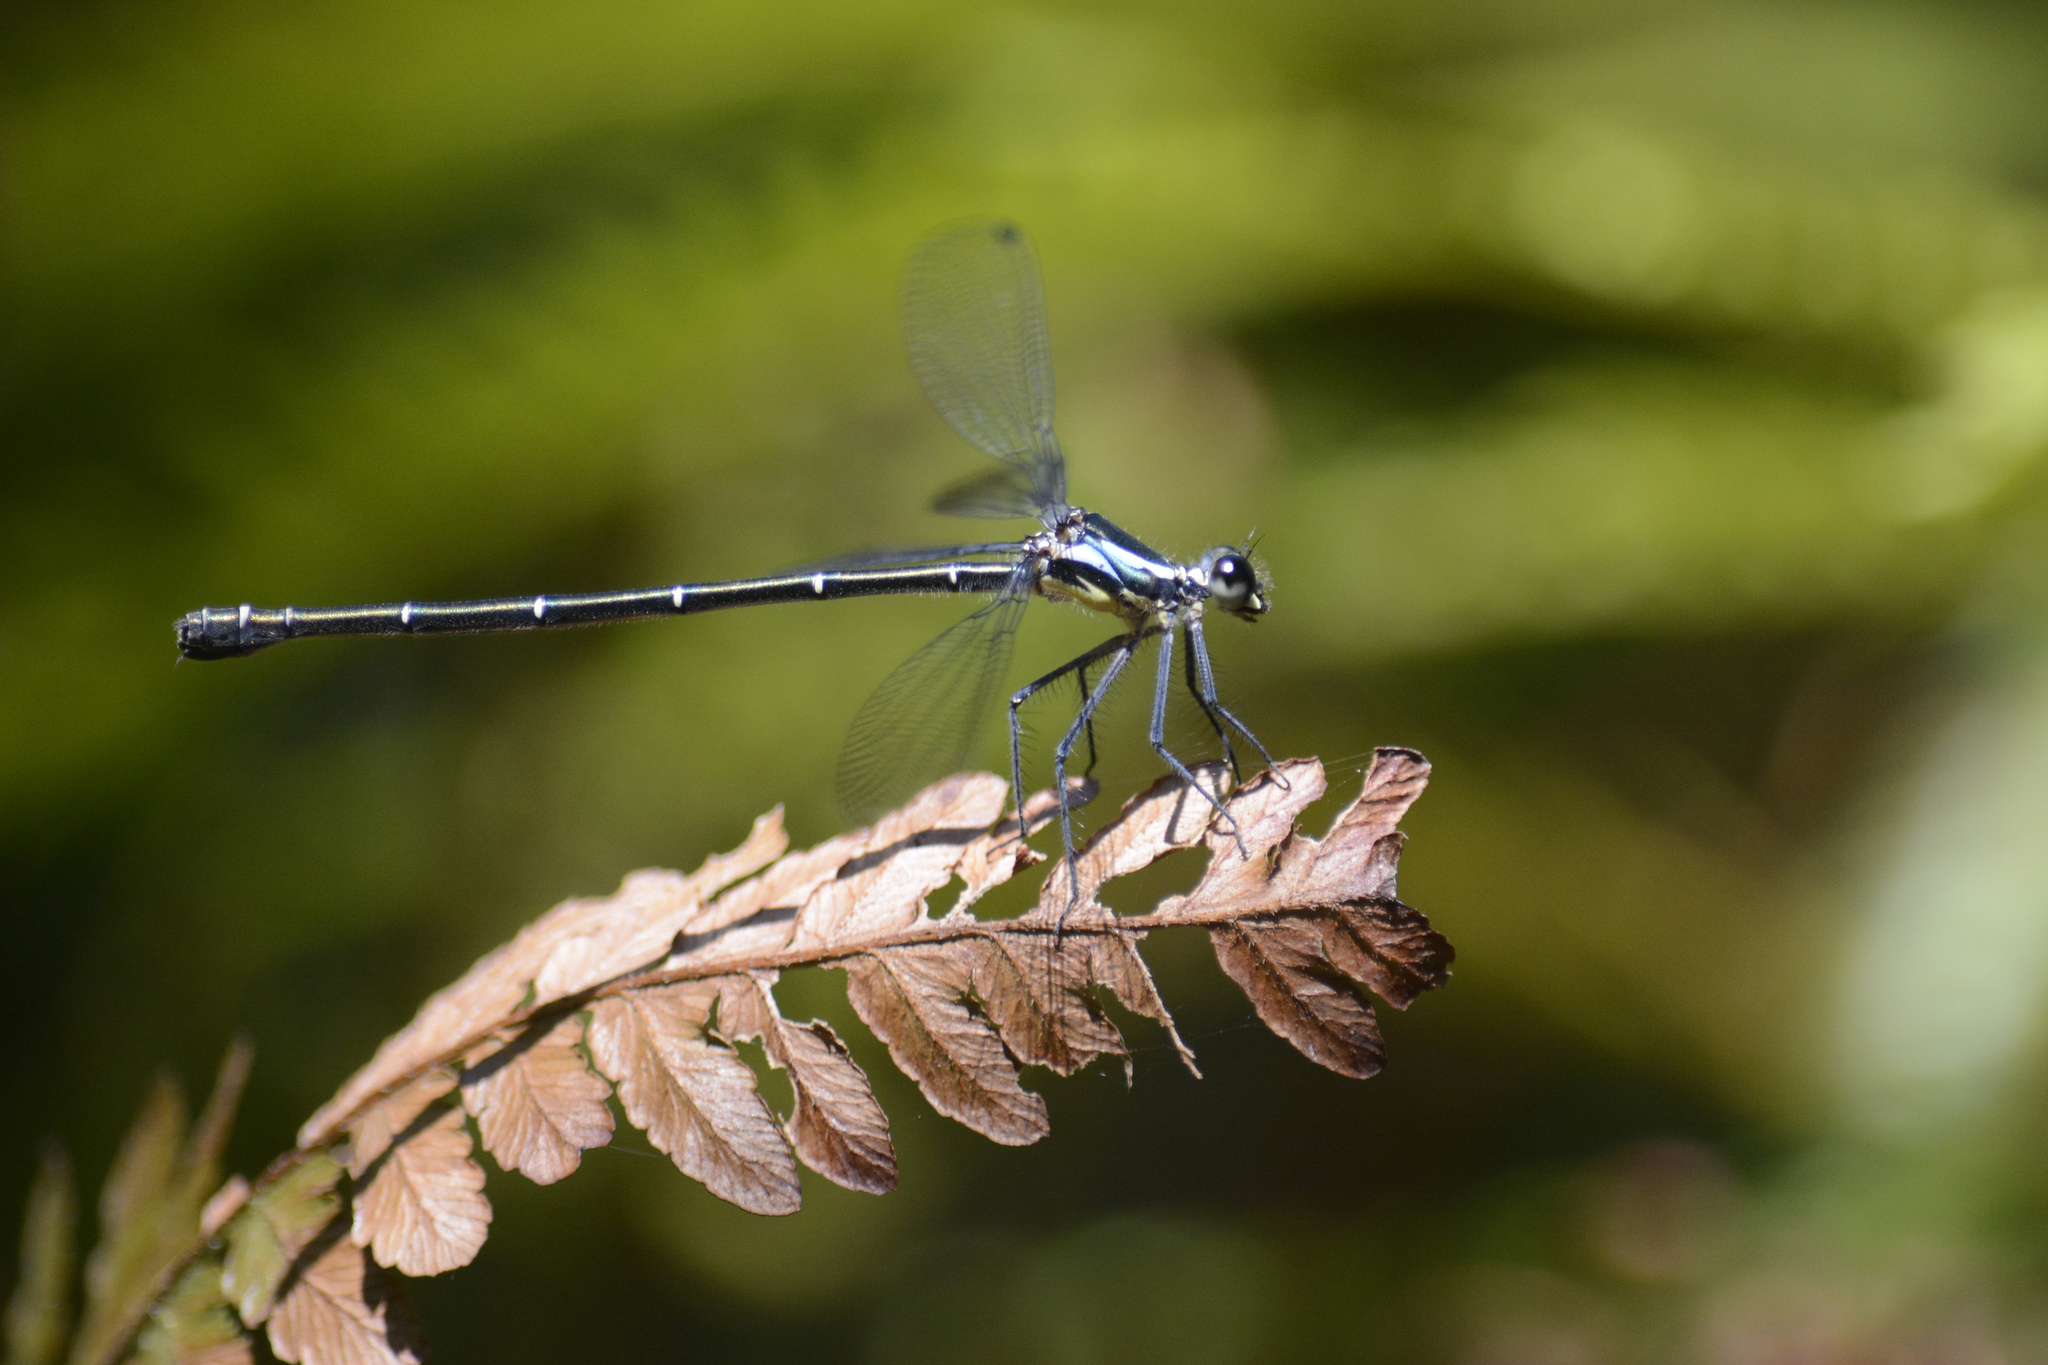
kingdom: Animalia
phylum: Arthropoda
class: Insecta
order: Odonata
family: Argiolestidae
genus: Austroargiolestes
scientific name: Austroargiolestes icteromelas
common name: Common flatwing
